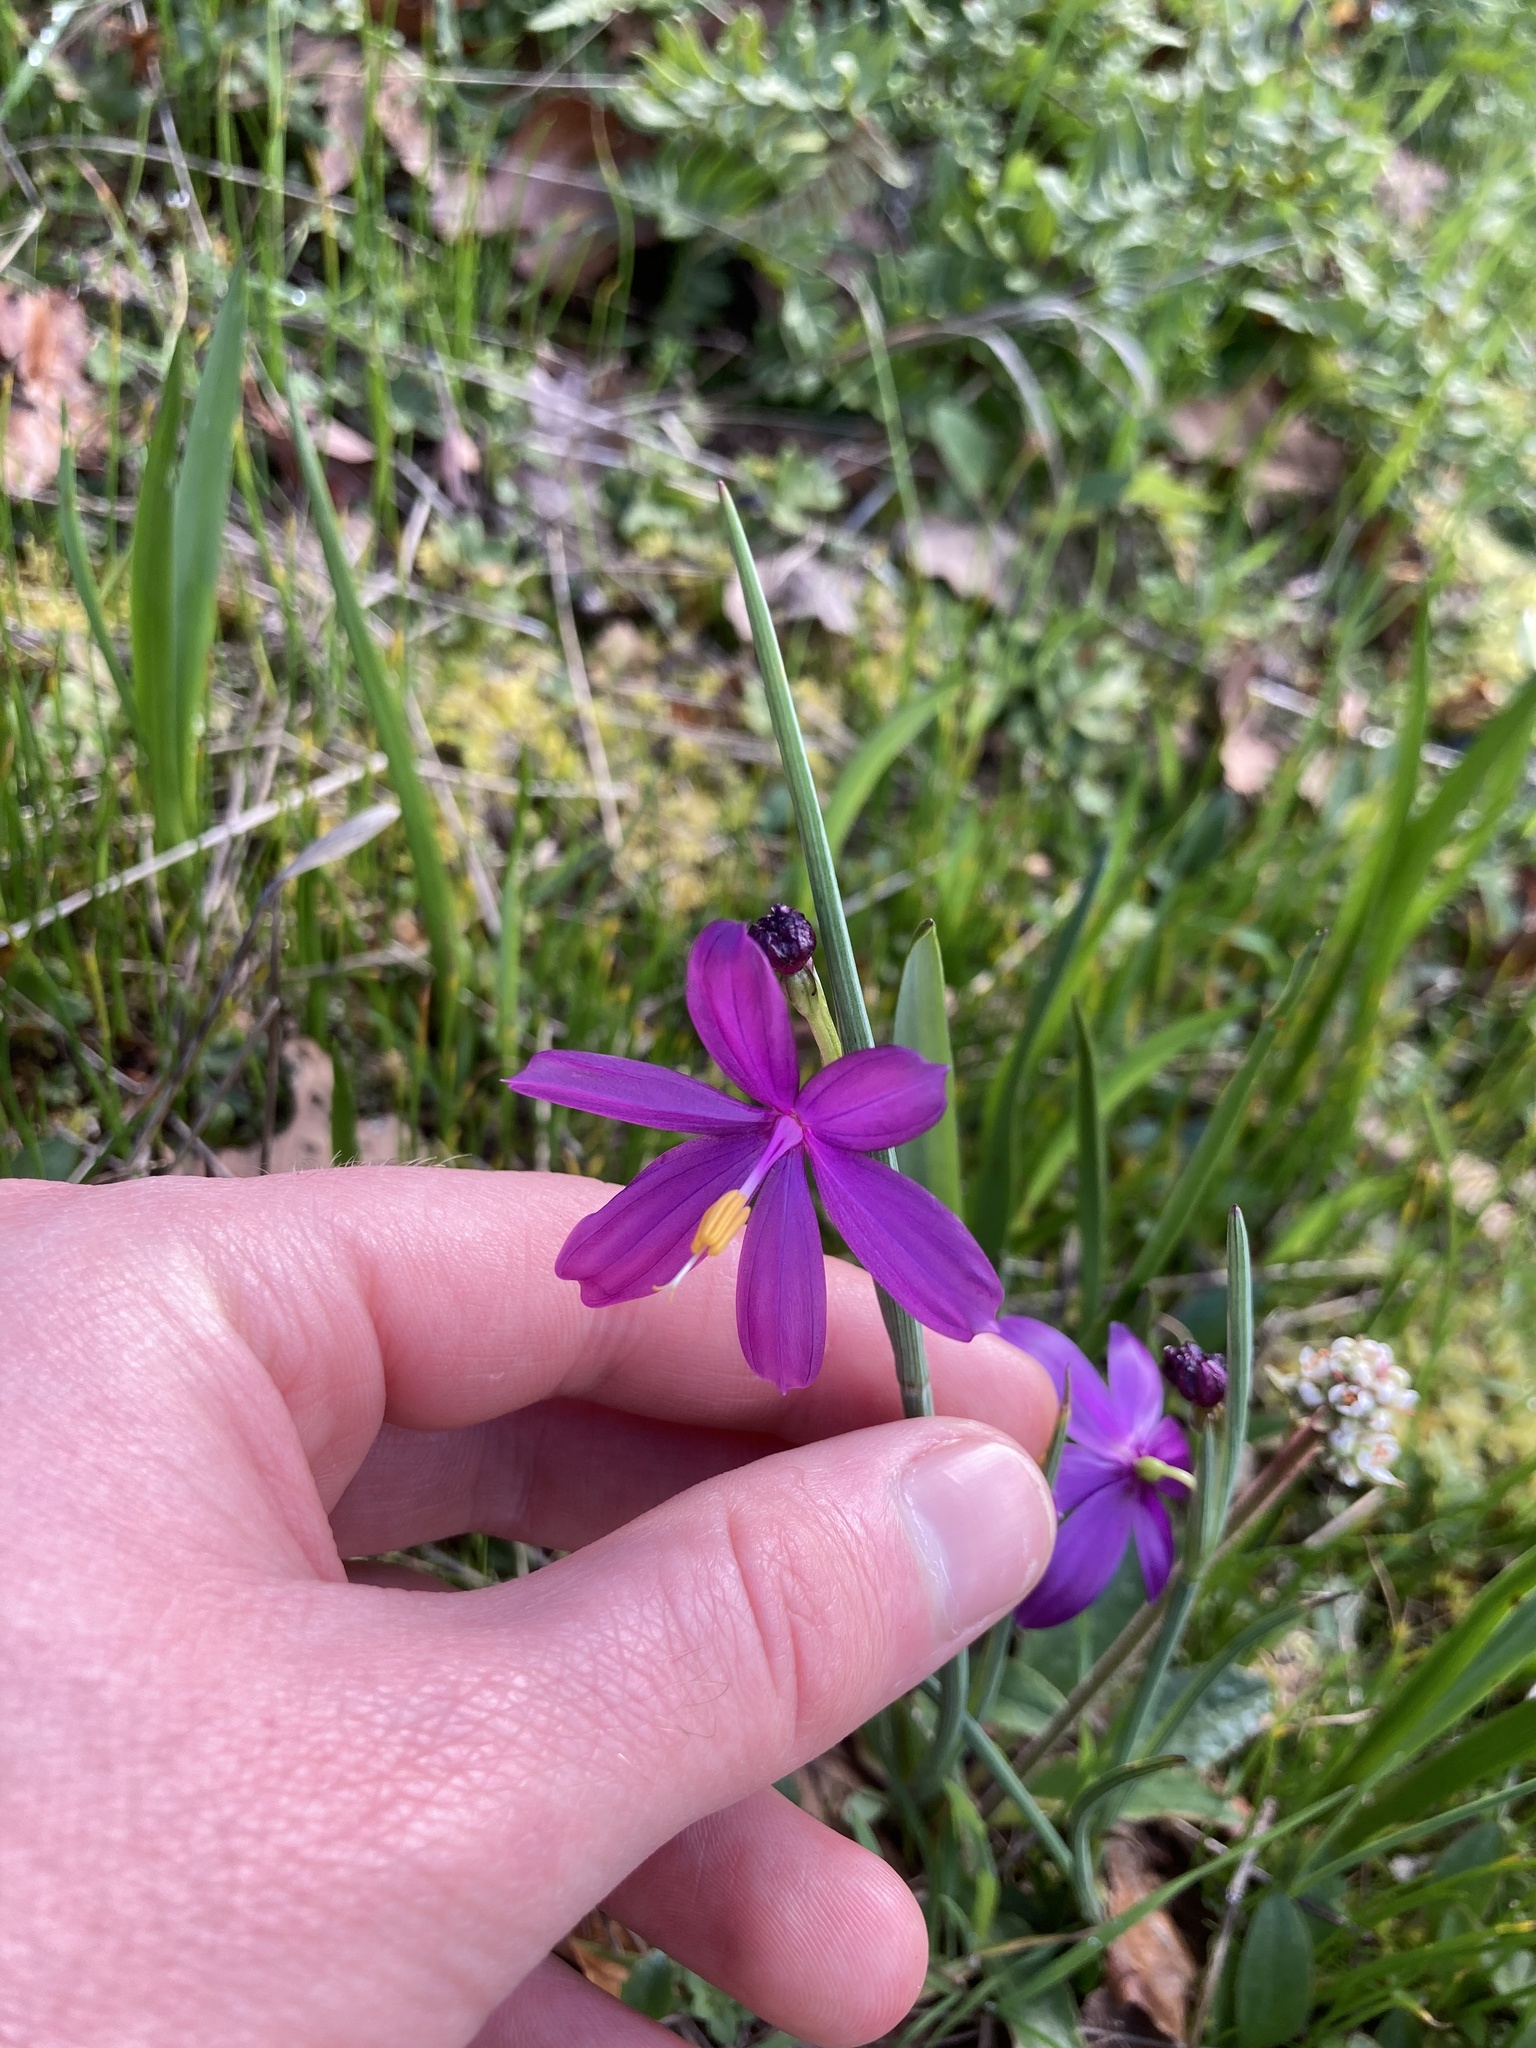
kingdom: Plantae
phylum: Tracheophyta
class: Liliopsida
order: Asparagales
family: Iridaceae
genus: Olsynium
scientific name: Olsynium douglasii
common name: Douglas' grasswidow
